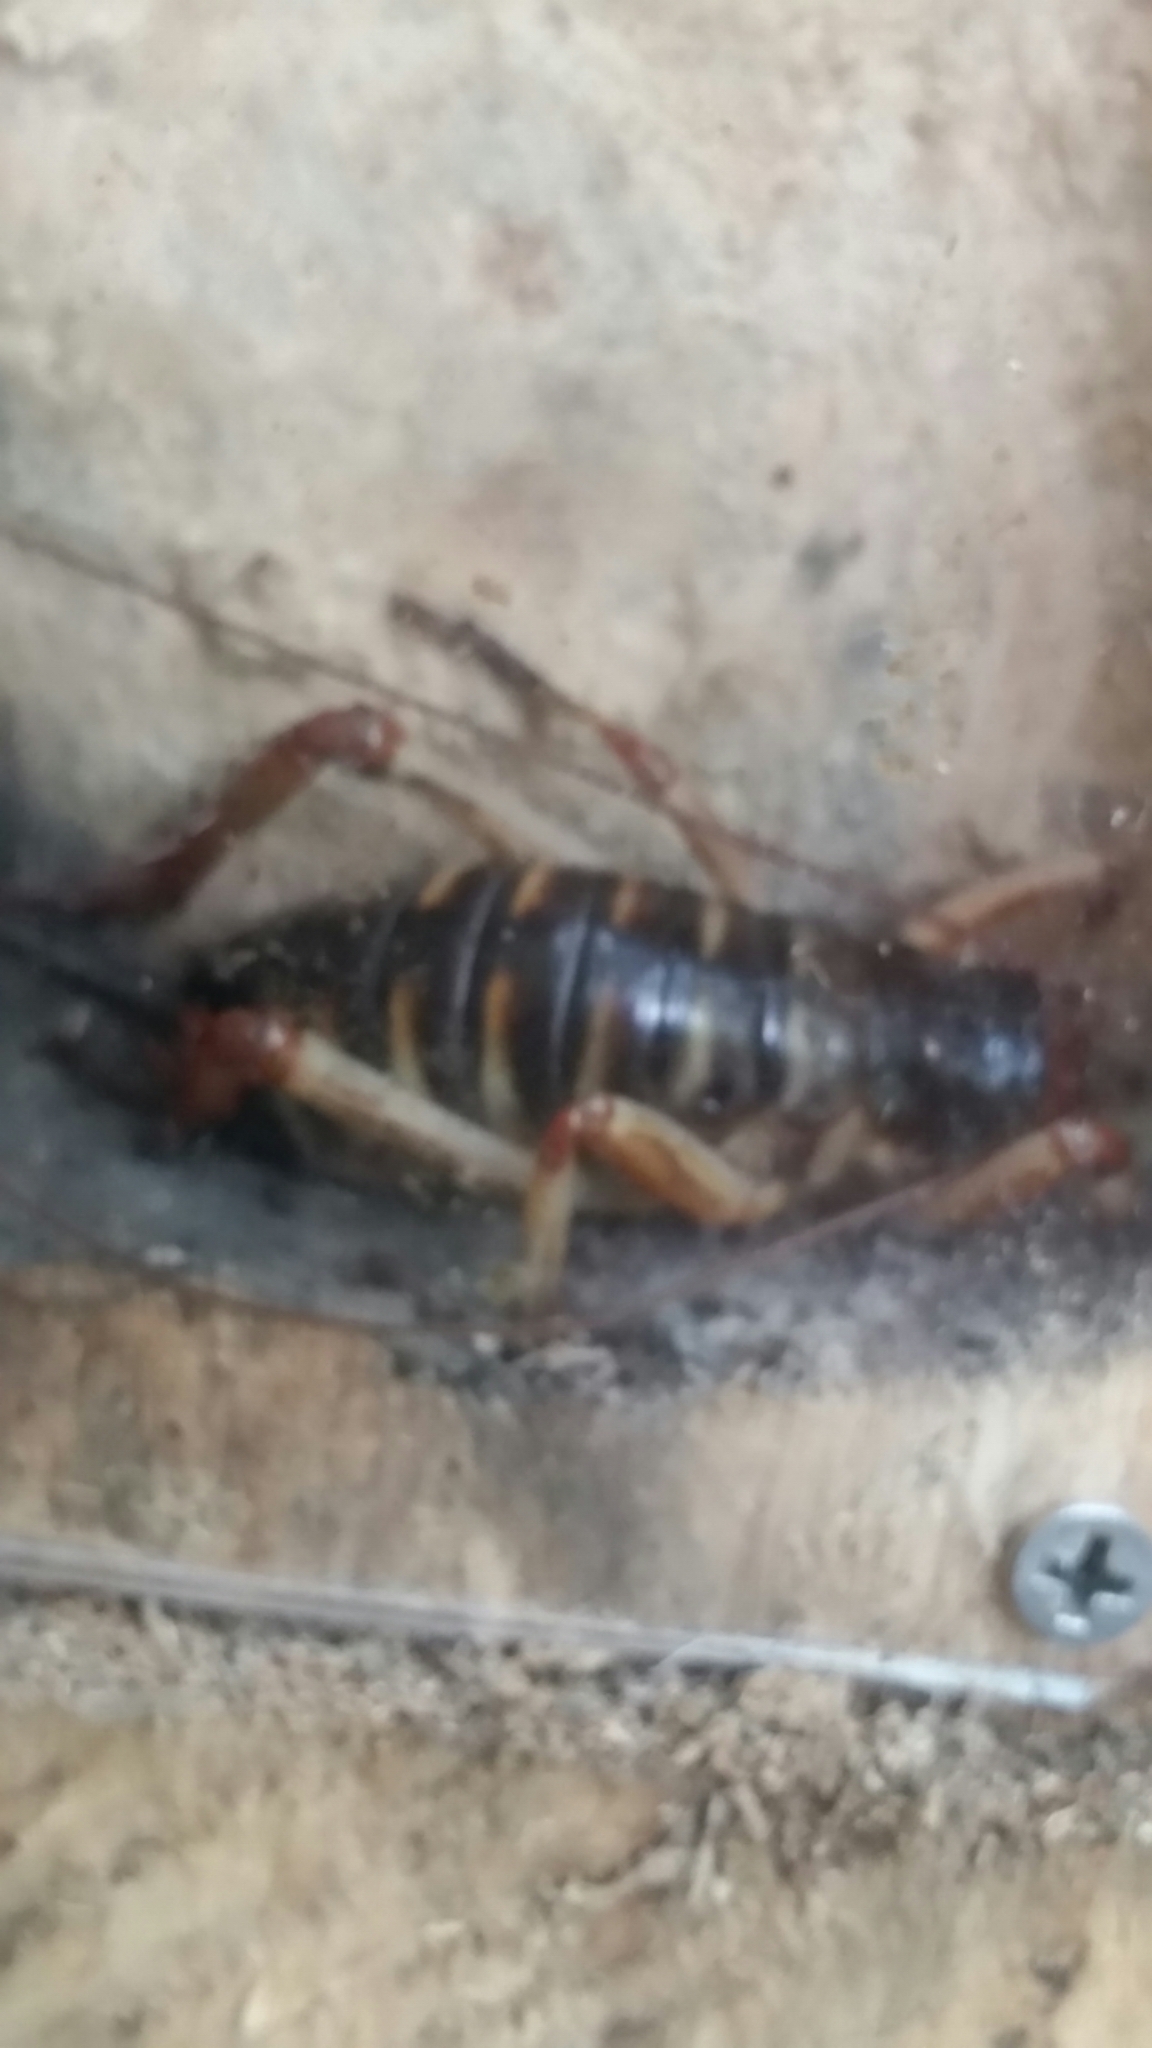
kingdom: Animalia
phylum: Arthropoda
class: Insecta
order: Orthoptera
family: Anostostomatidae
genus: Hemideina
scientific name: Hemideina crassidens
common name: Wellington tree weta
